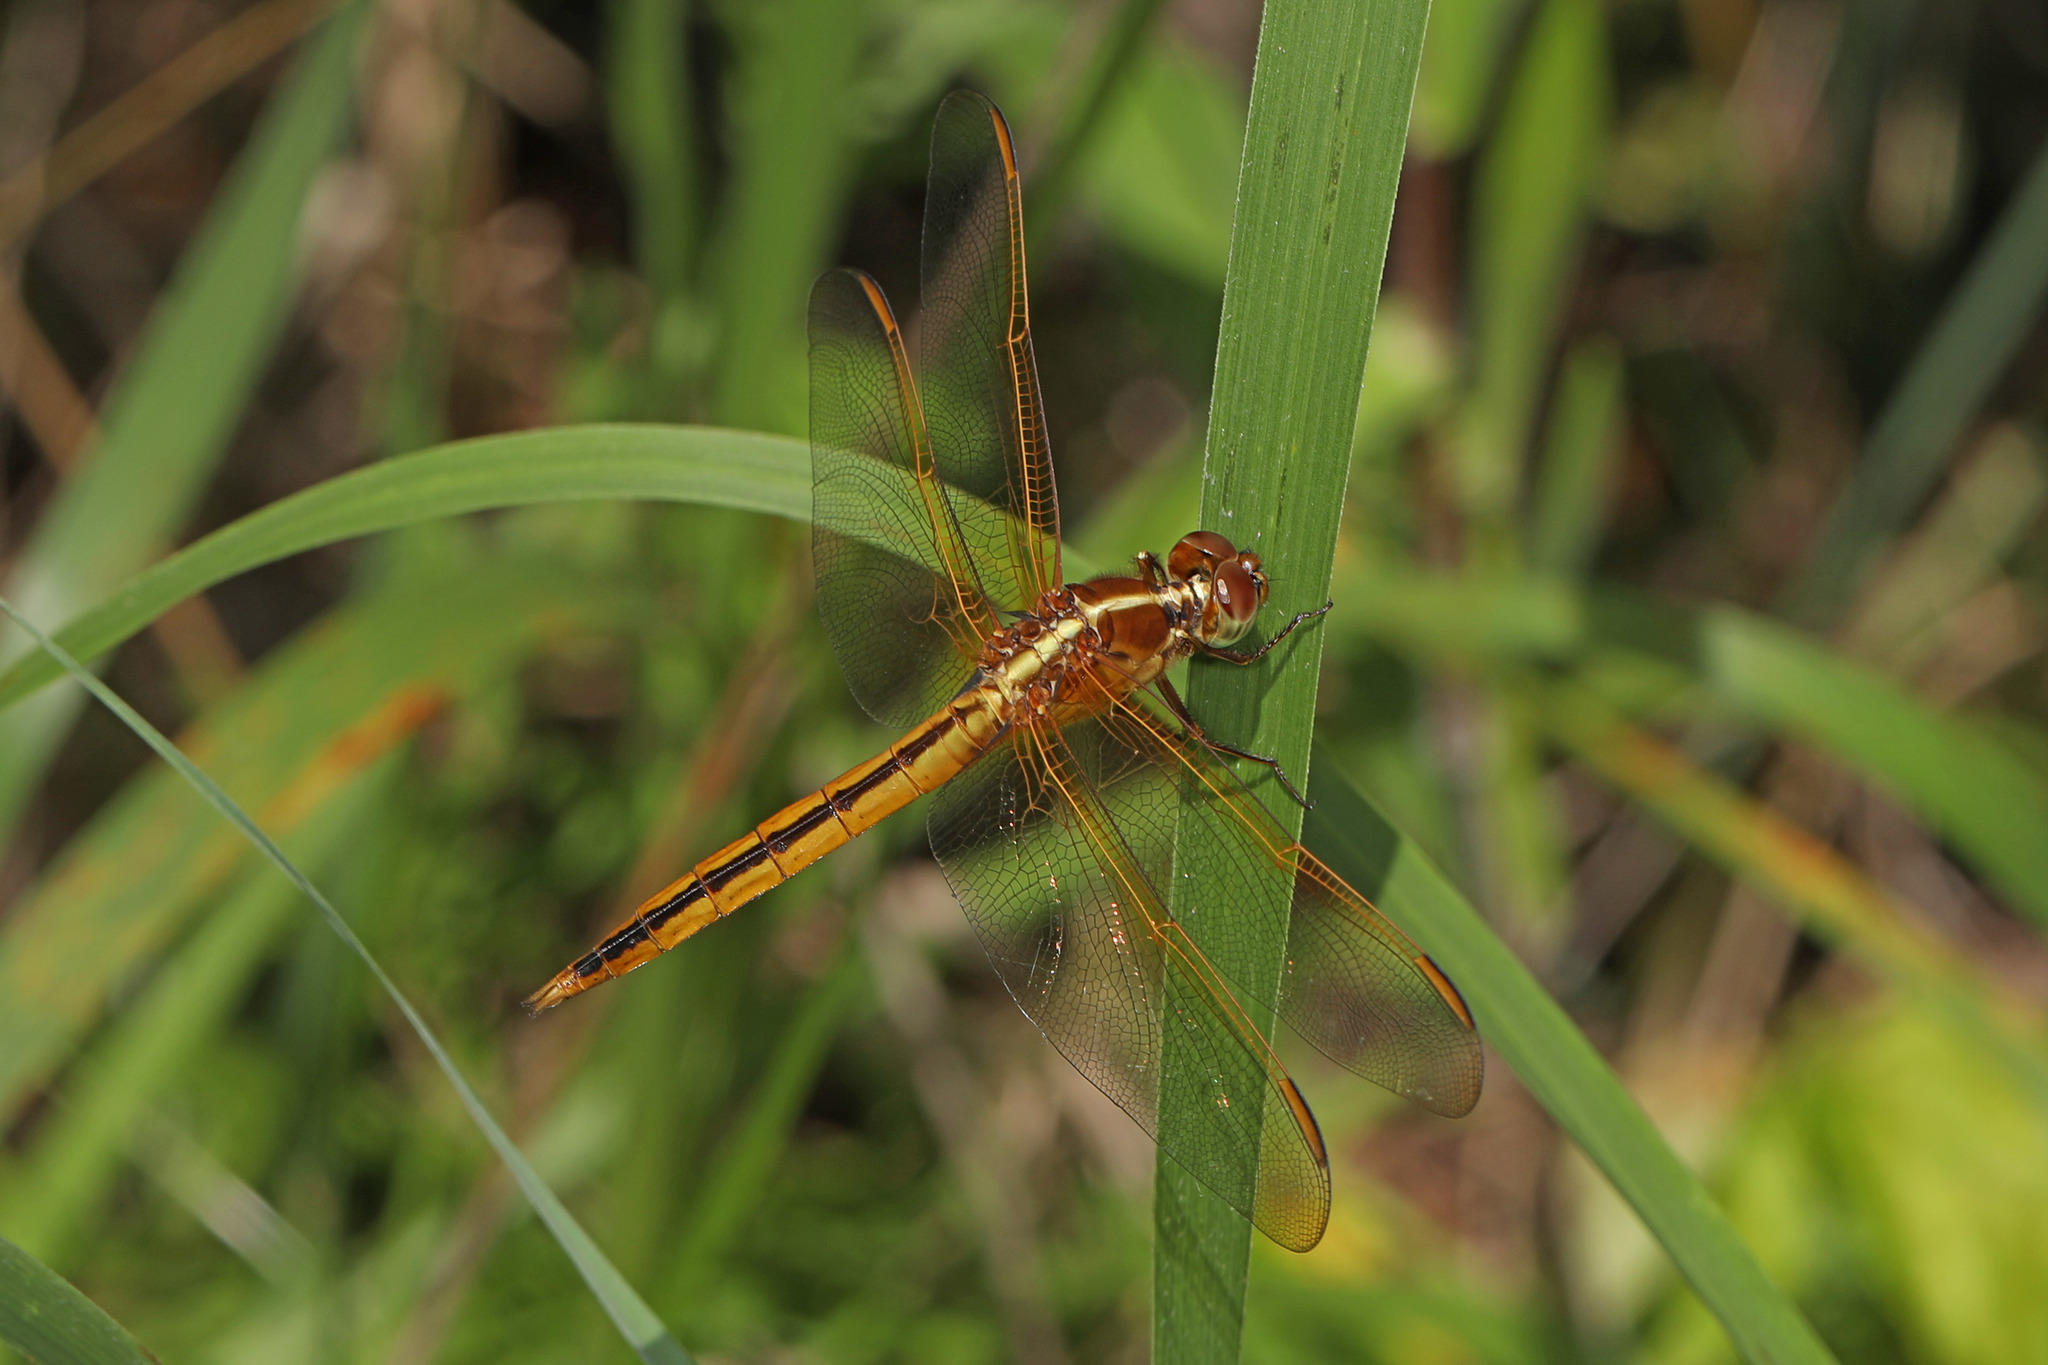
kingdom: Animalia
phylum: Arthropoda
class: Insecta
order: Odonata
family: Libellulidae
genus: Libellula
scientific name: Libellula needhami
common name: Needham's skimmer
